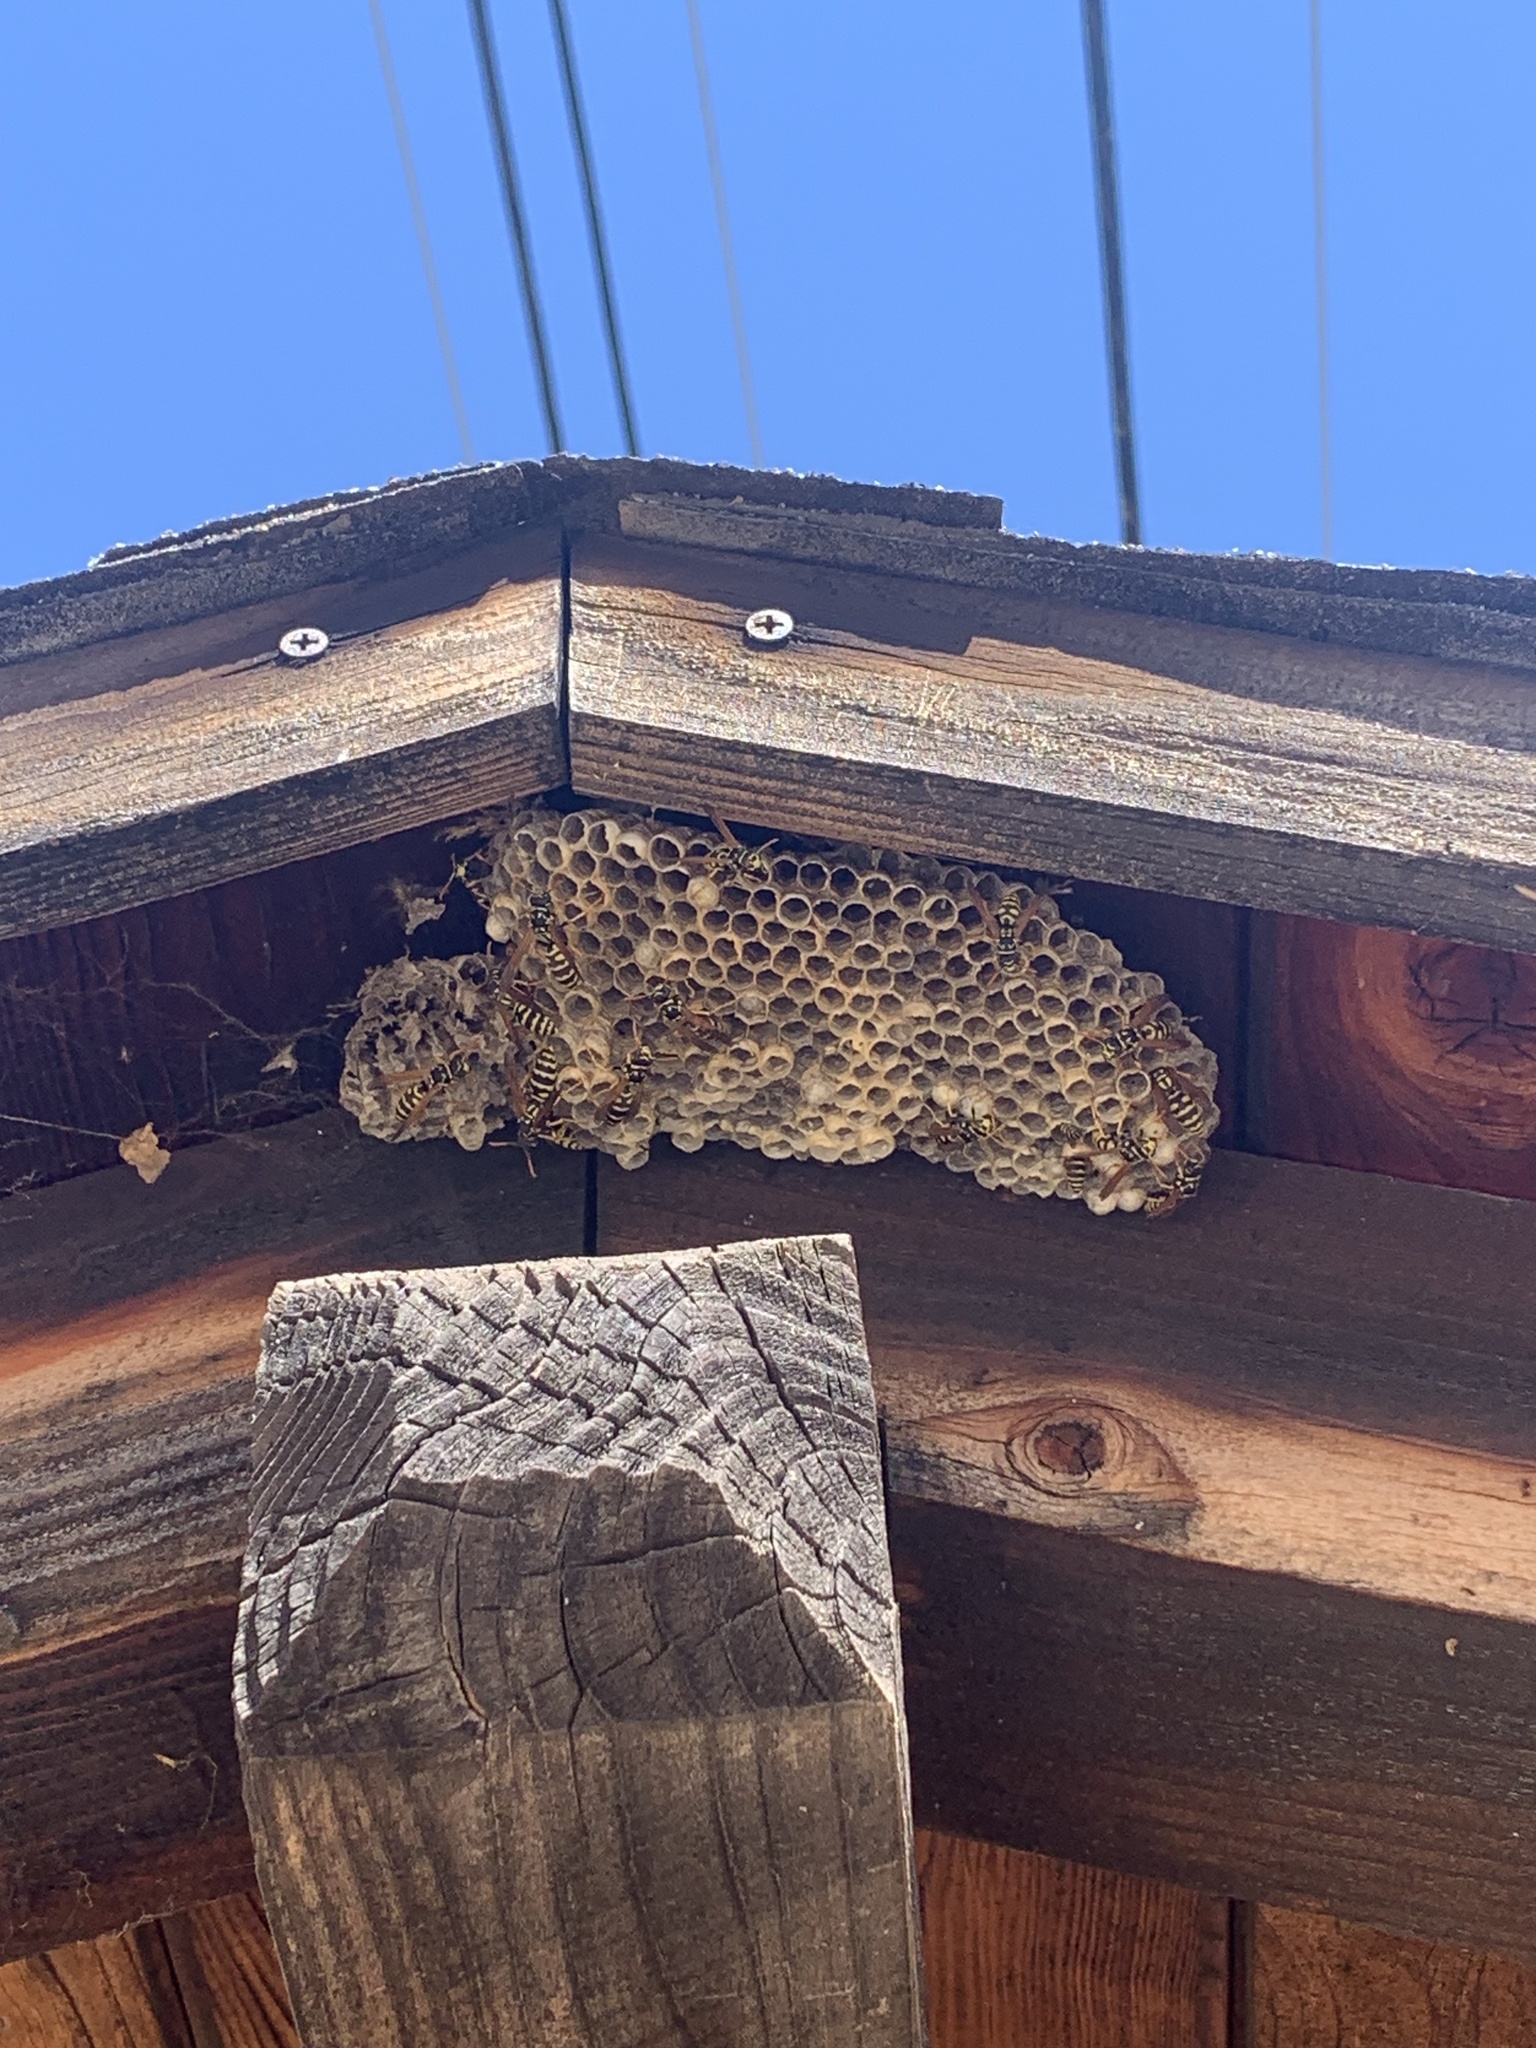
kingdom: Animalia
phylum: Arthropoda
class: Insecta
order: Hymenoptera
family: Eumenidae
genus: Polistes
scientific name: Polistes dominula
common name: Paper wasp
